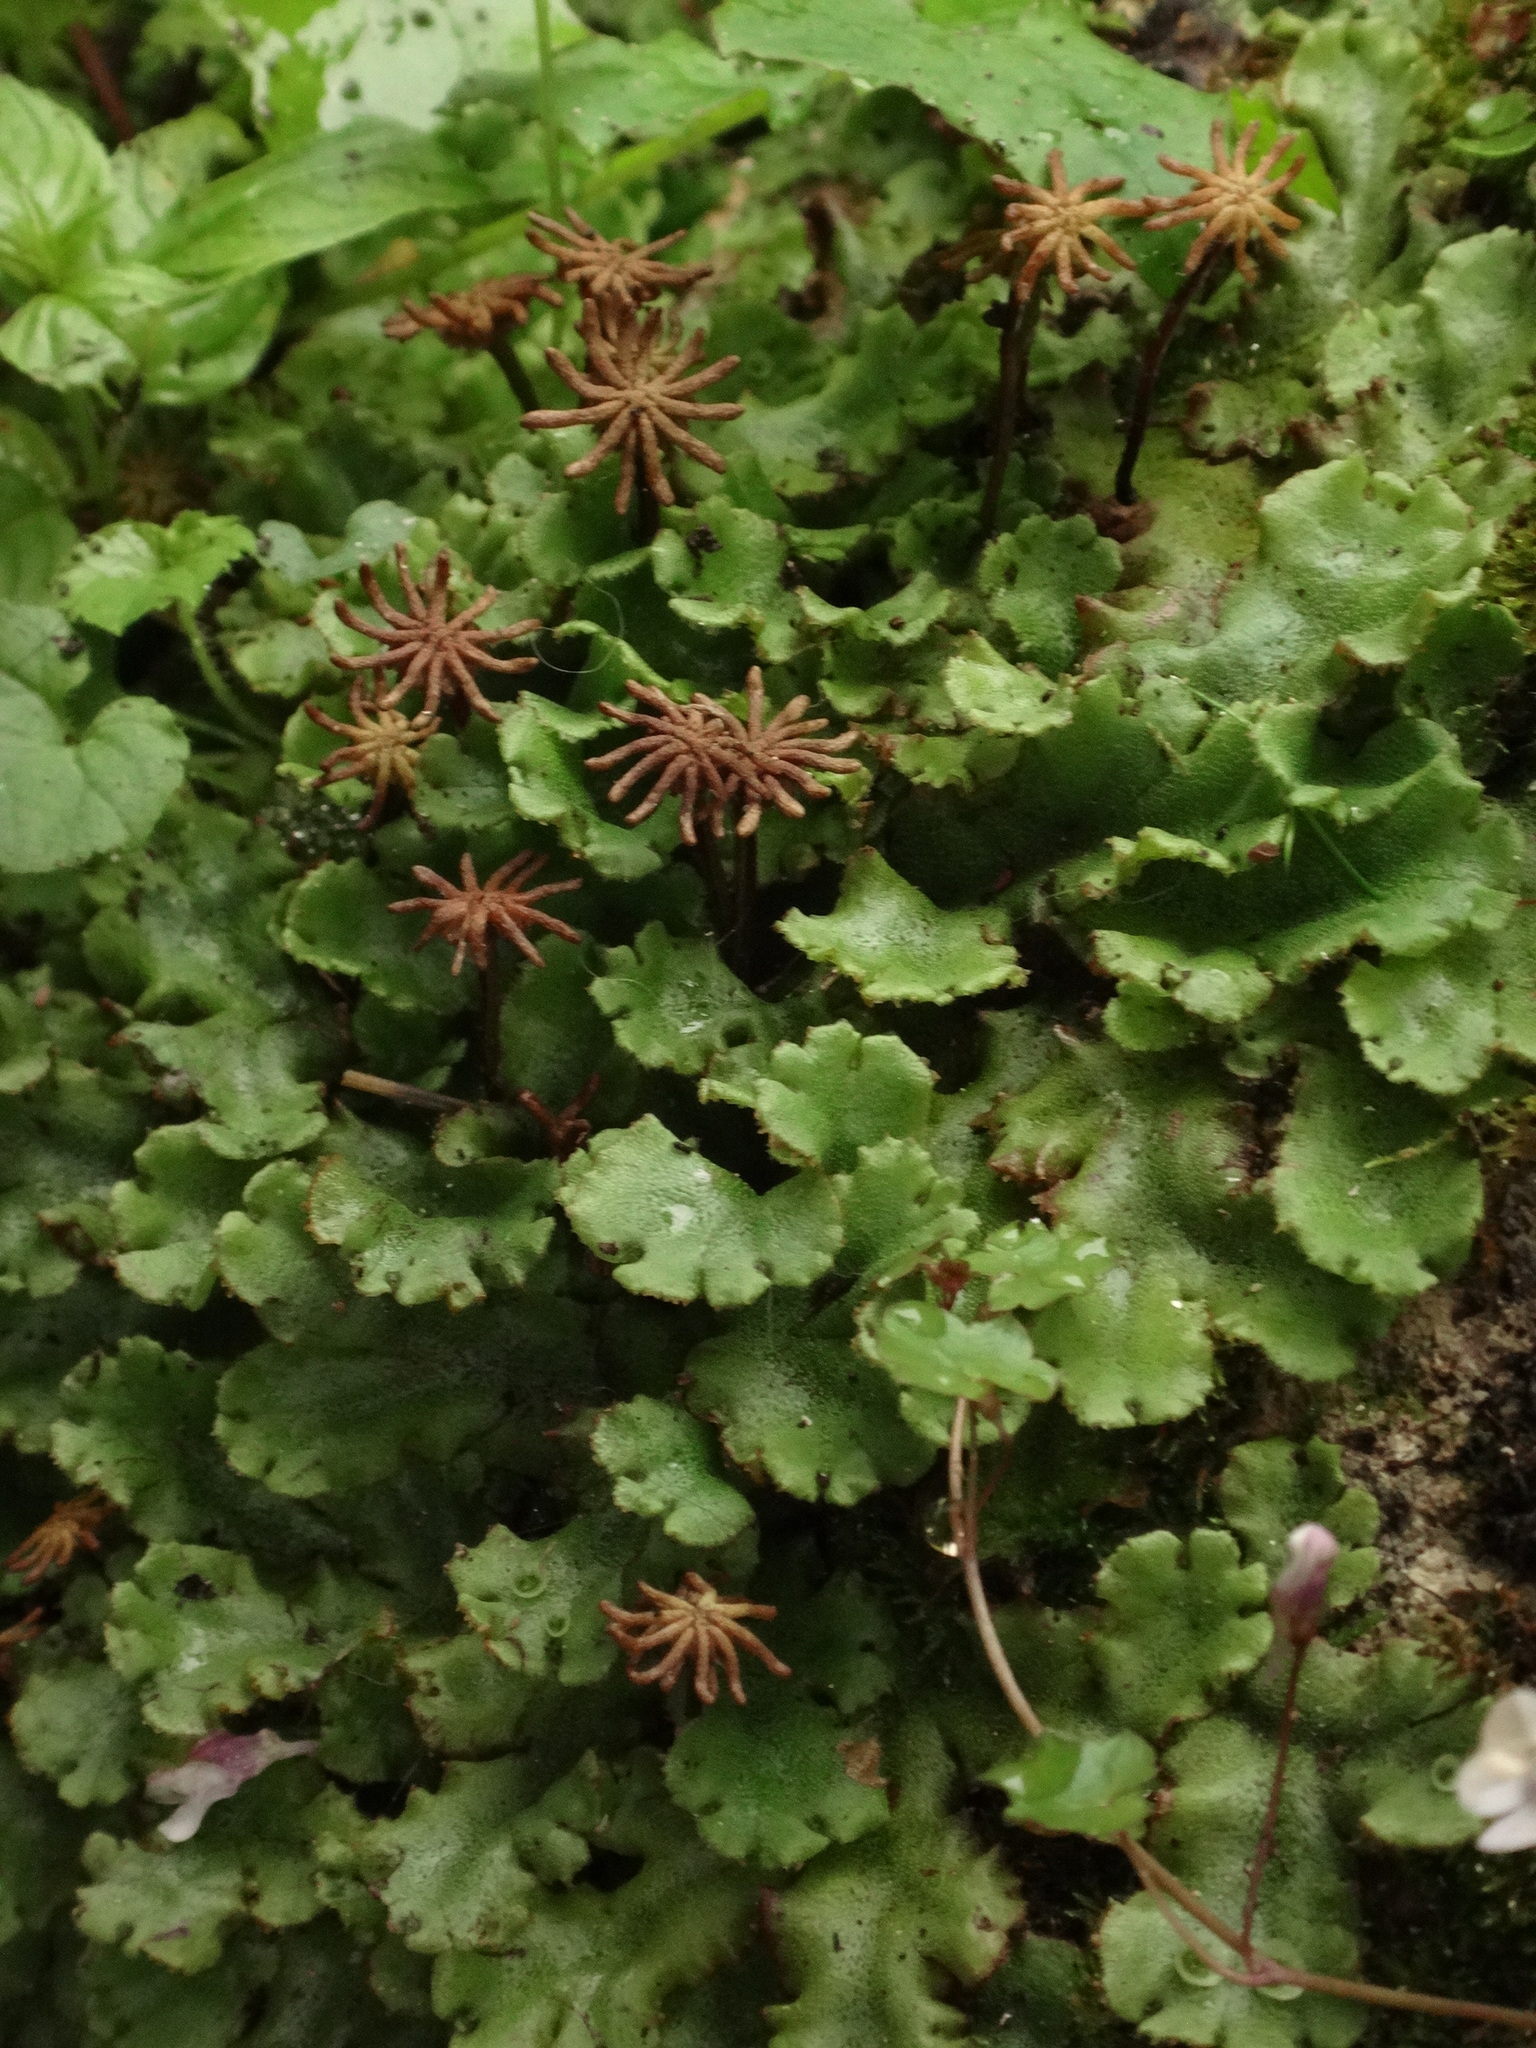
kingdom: Plantae
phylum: Marchantiophyta
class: Marchantiopsida
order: Marchantiales
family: Marchantiaceae
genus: Marchantia
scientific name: Marchantia polymorpha
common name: Common liverwort
